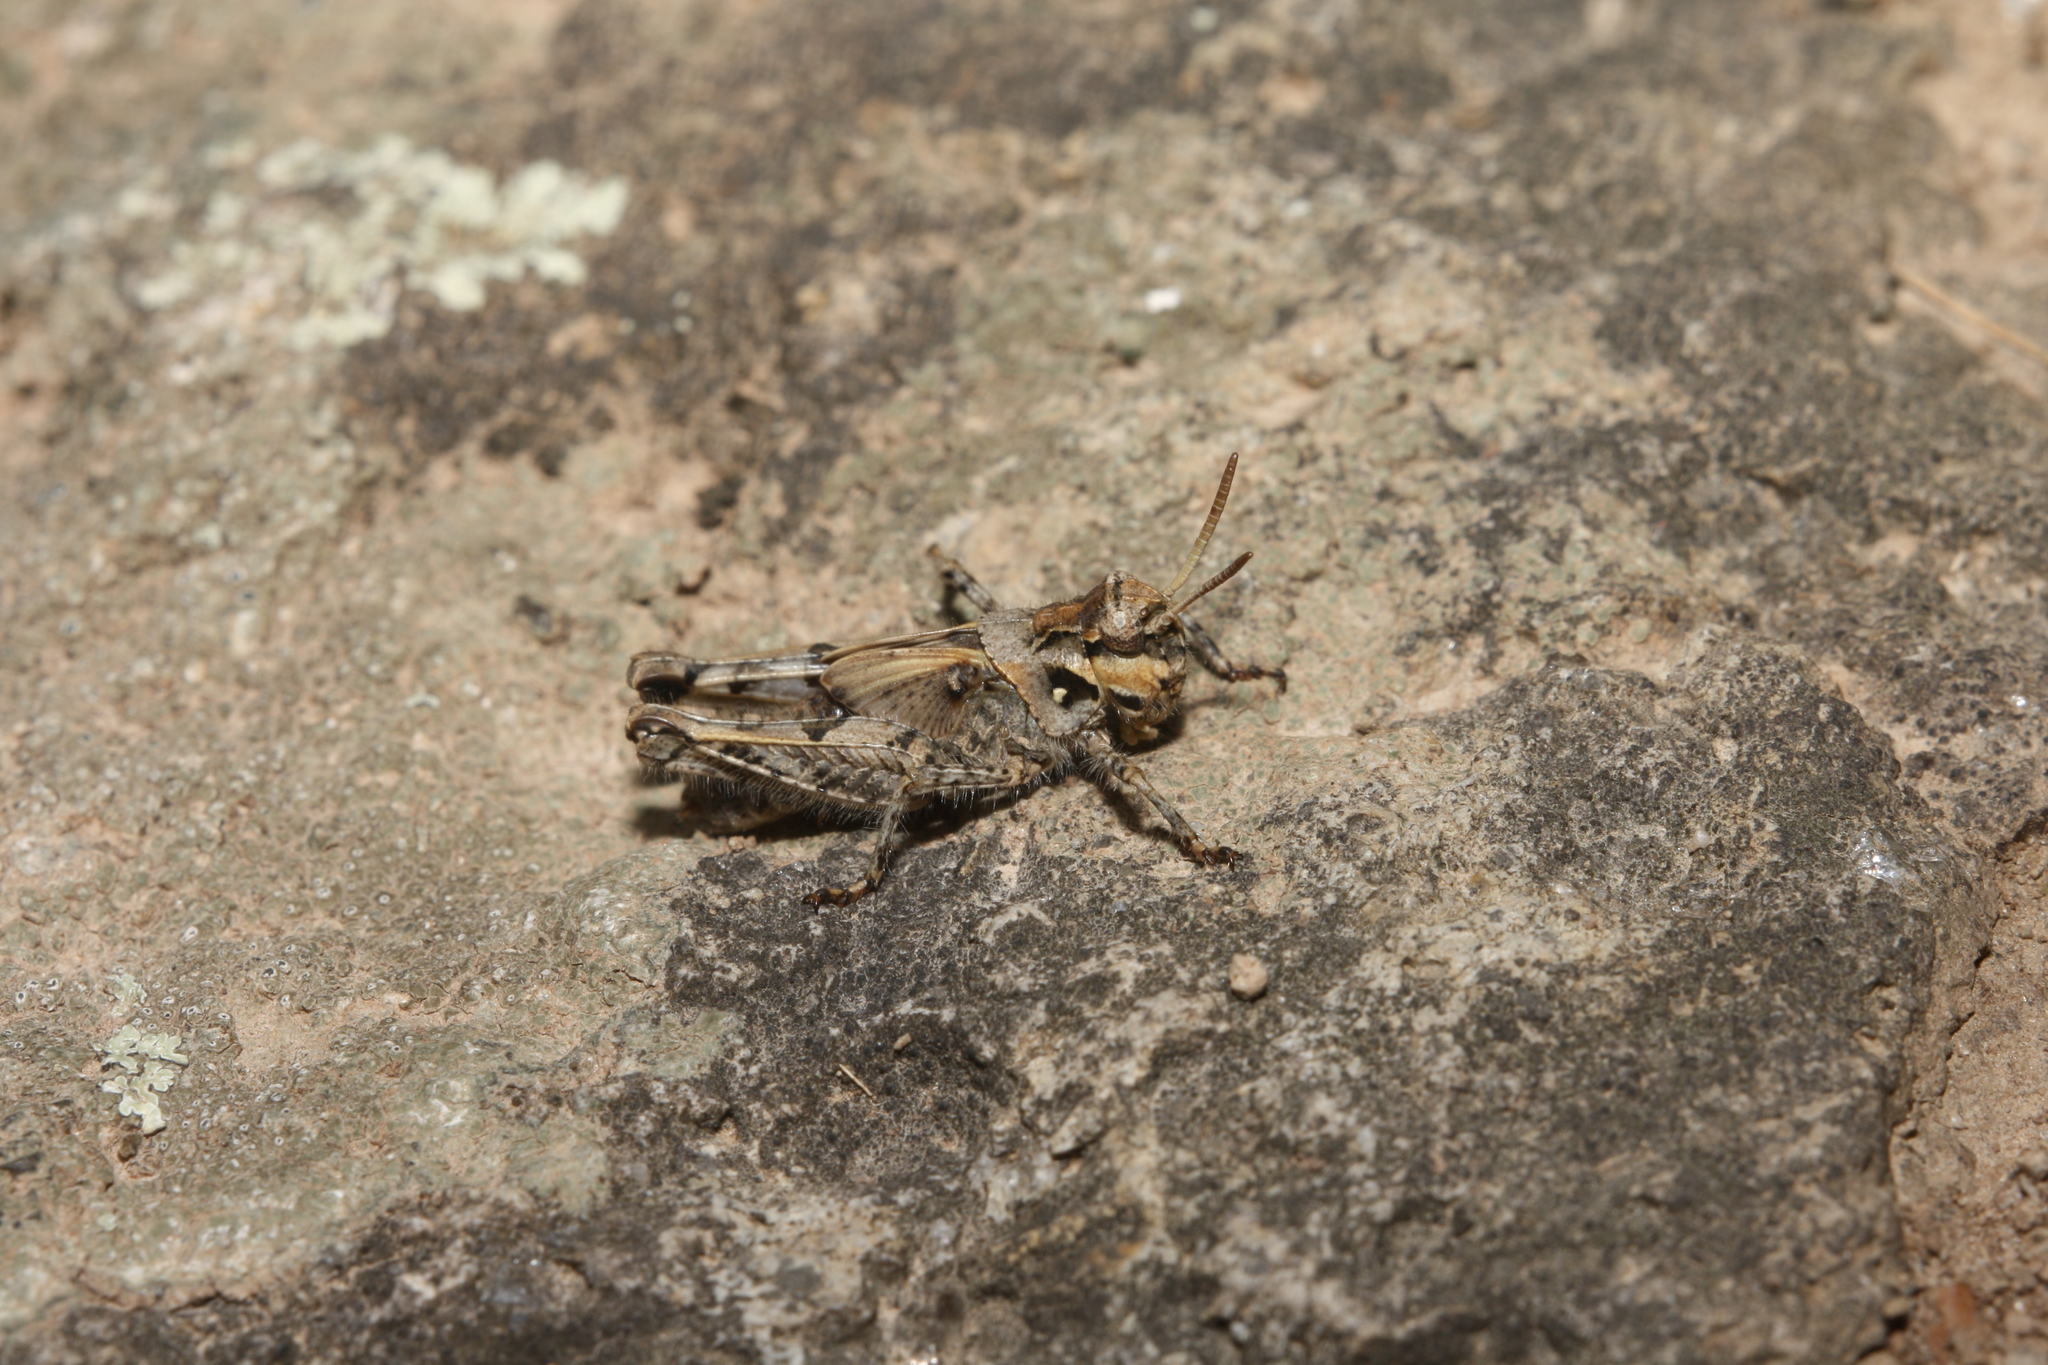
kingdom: Animalia
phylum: Arthropoda
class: Insecta
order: Orthoptera
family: Acrididae
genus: Acrotylus
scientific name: Acrotylus insubricus
